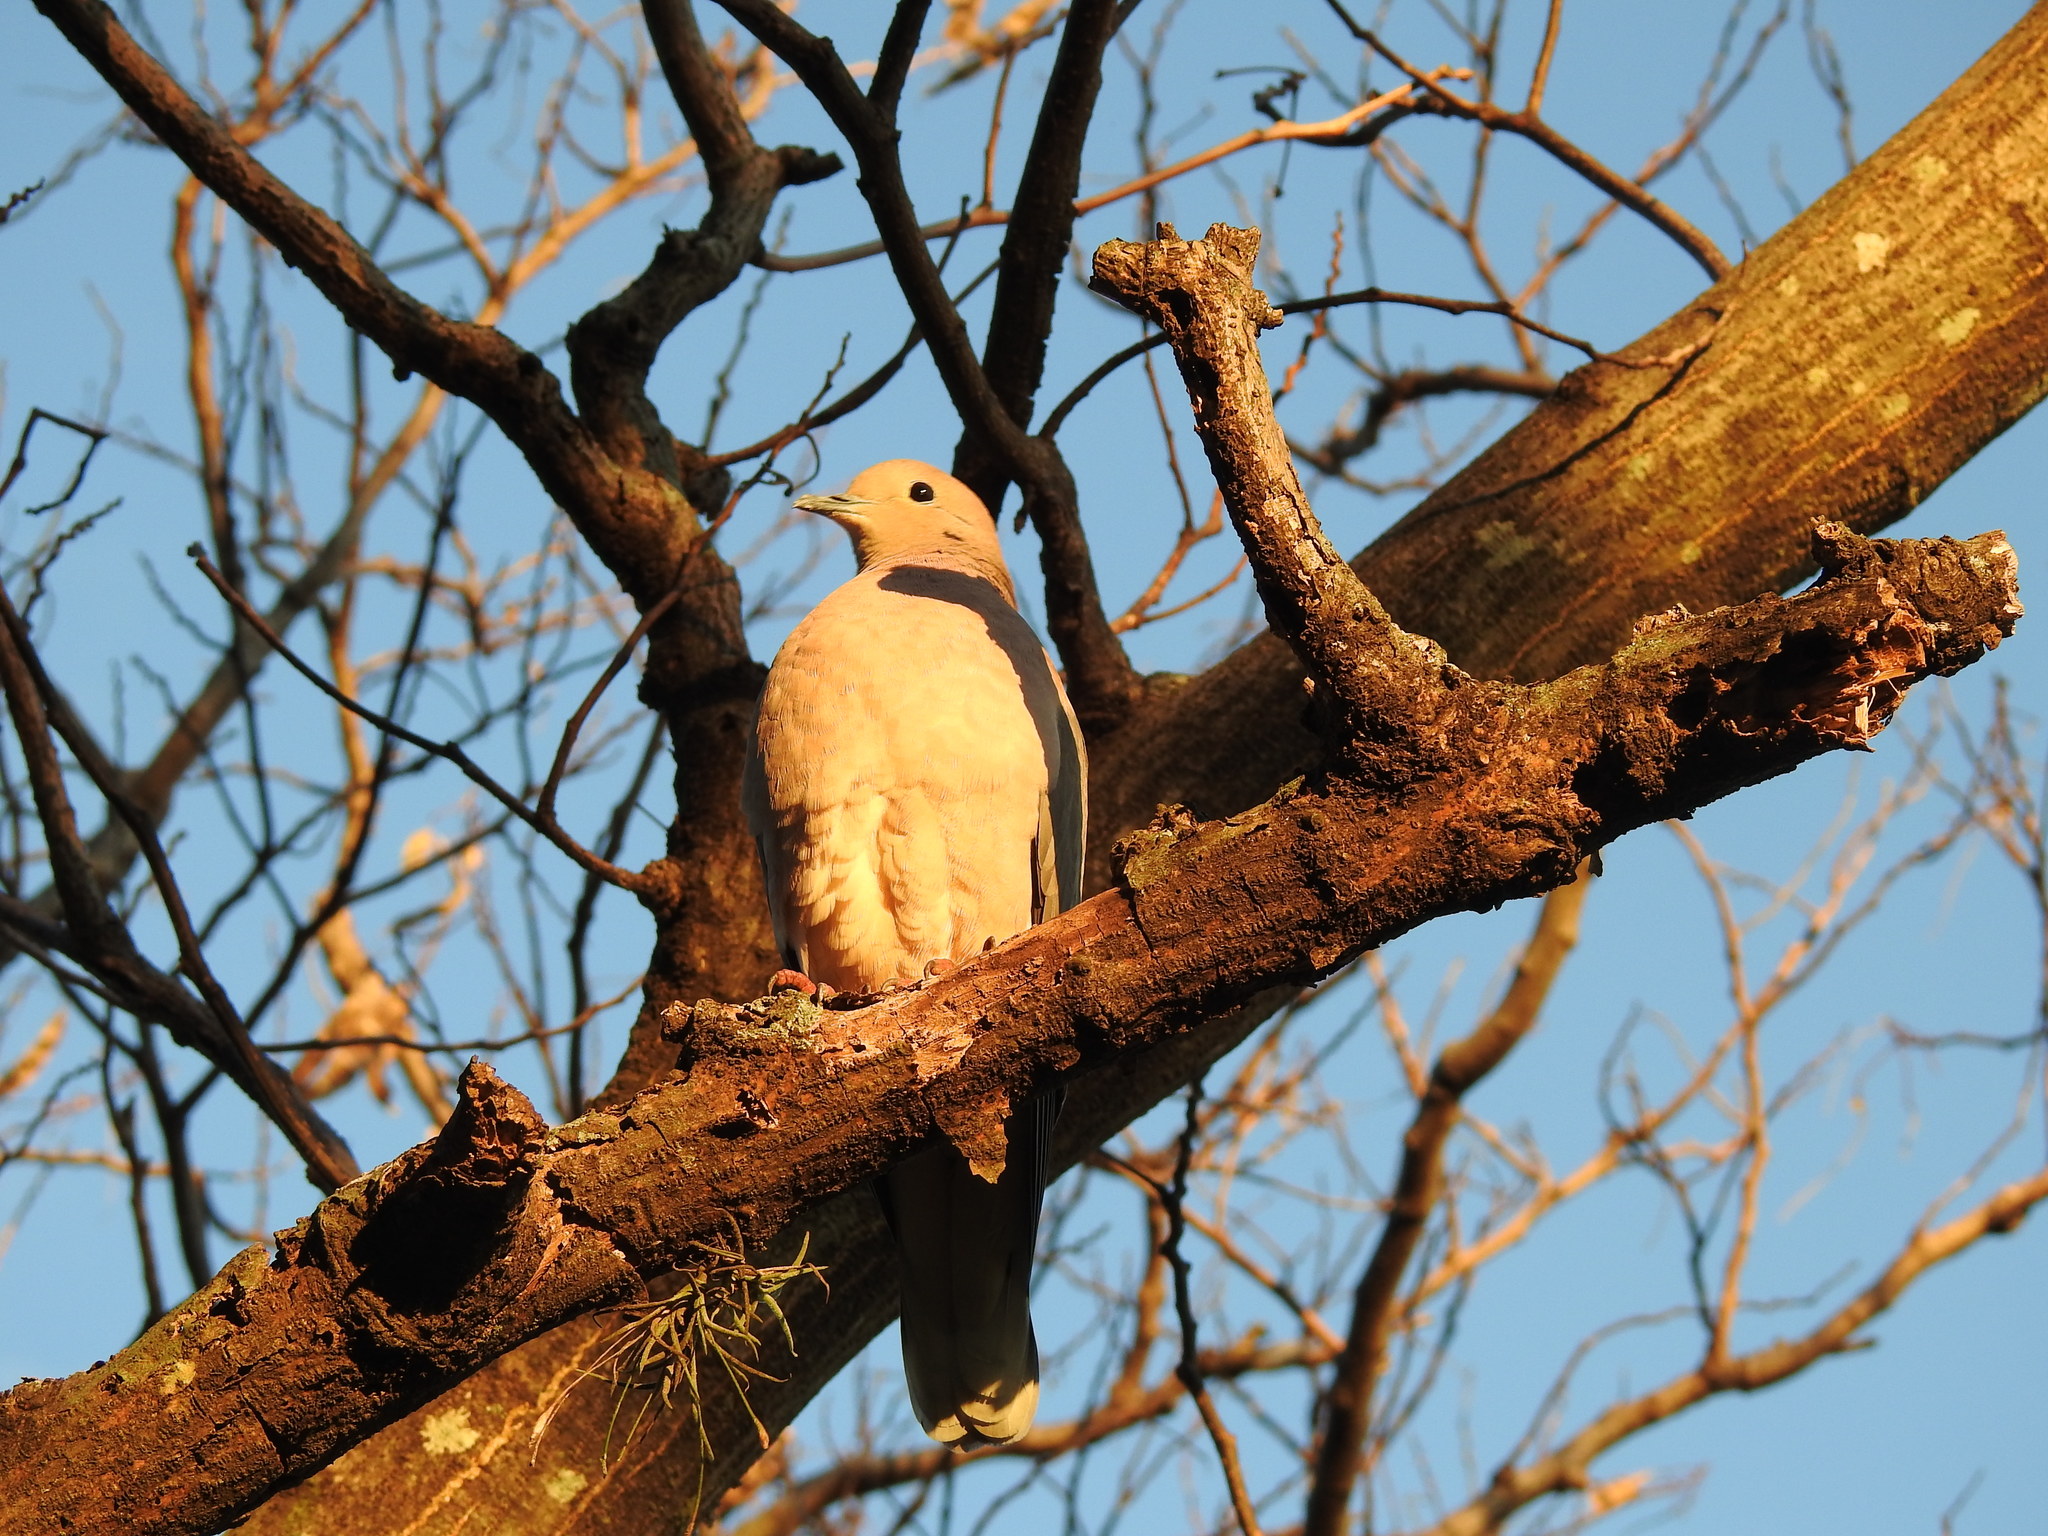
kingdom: Animalia
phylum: Chordata
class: Aves
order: Columbiformes
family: Columbidae
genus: Zenaida
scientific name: Zenaida auriculata
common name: Eared dove
